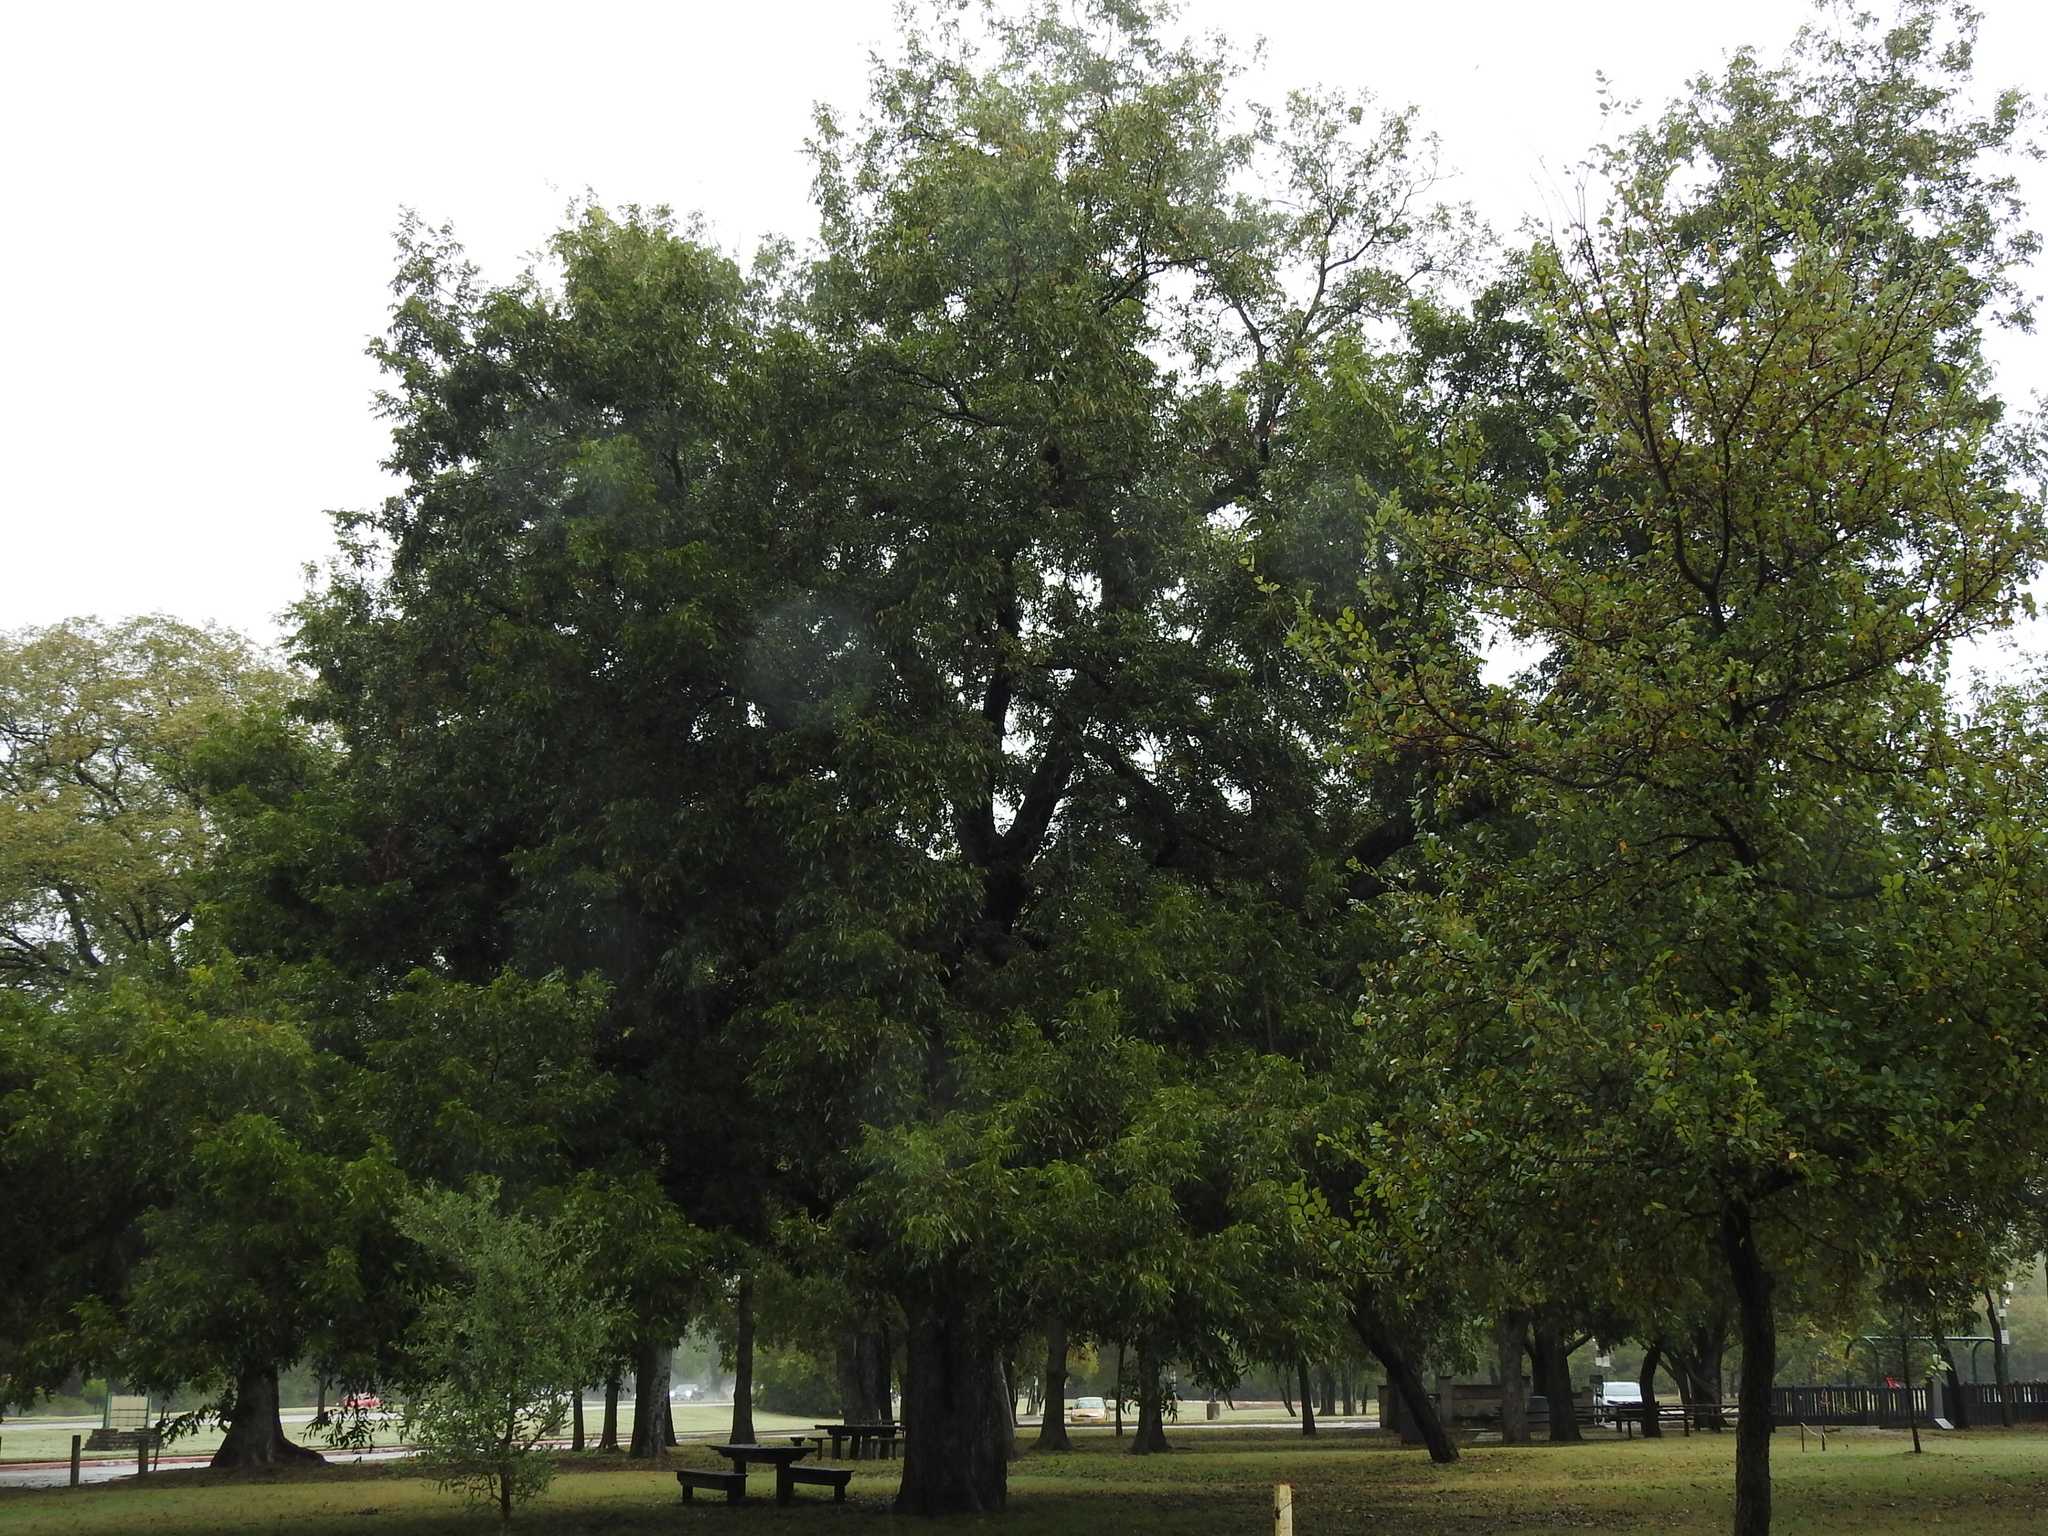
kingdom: Plantae
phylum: Tracheophyta
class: Magnoliopsida
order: Fagales
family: Juglandaceae
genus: Carya
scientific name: Carya illinoinensis
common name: Pecan
